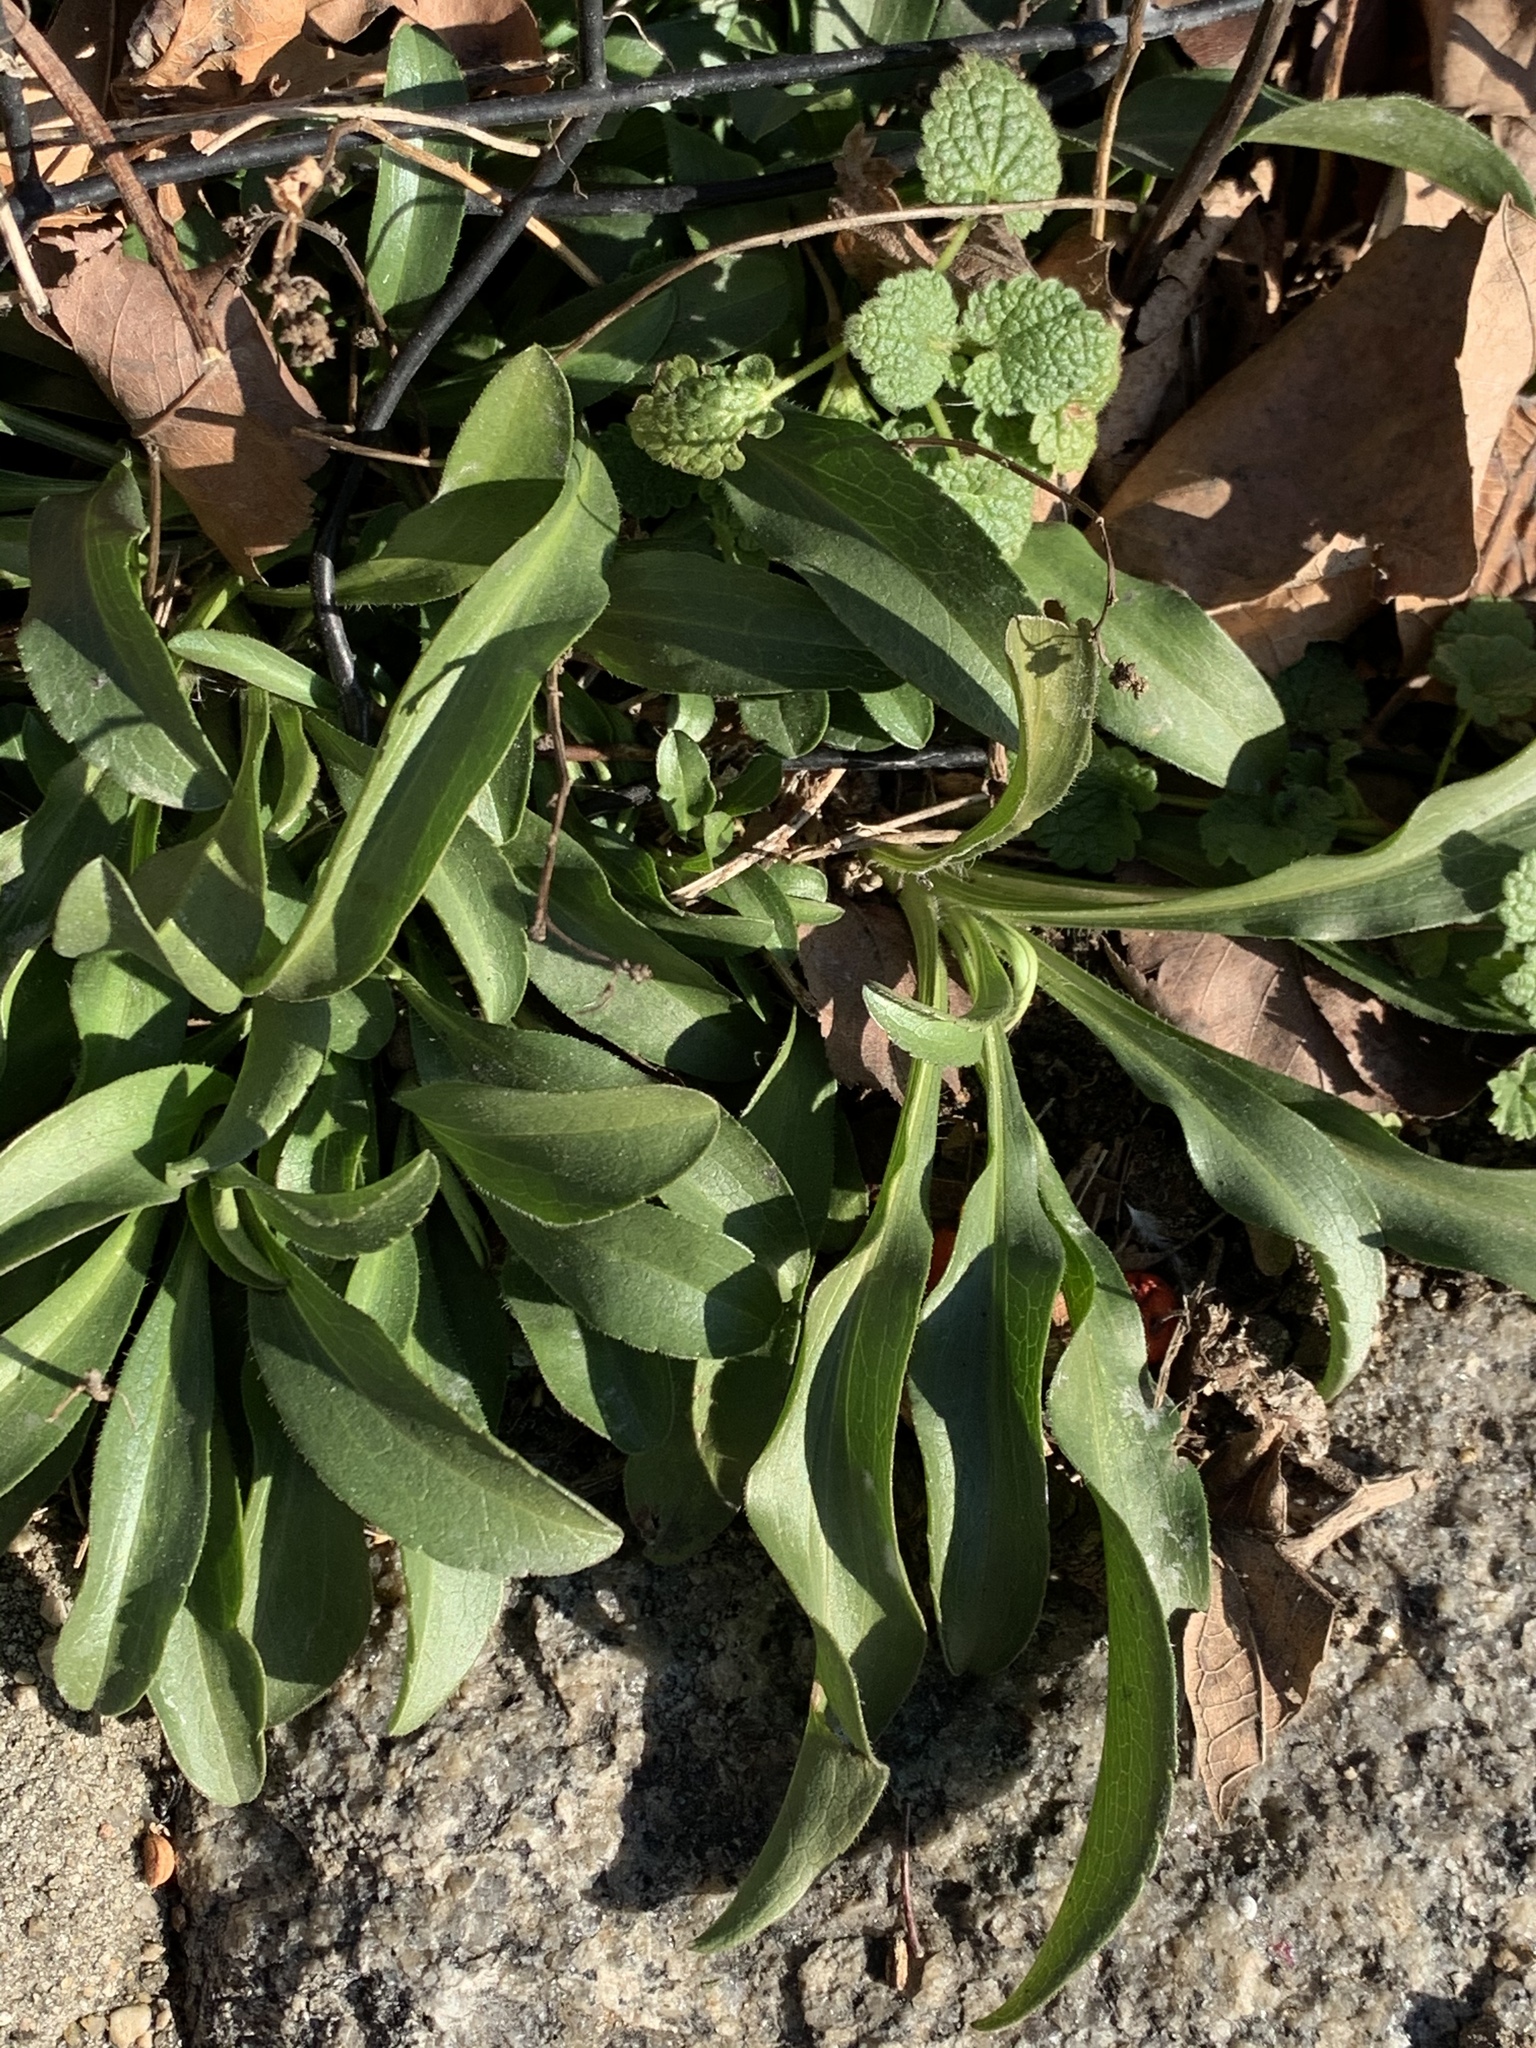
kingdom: Plantae
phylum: Tracheophyta
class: Magnoliopsida
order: Asterales
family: Asteraceae
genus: Solidago
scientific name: Solidago sempervirens
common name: Salt-marsh goldenrod
